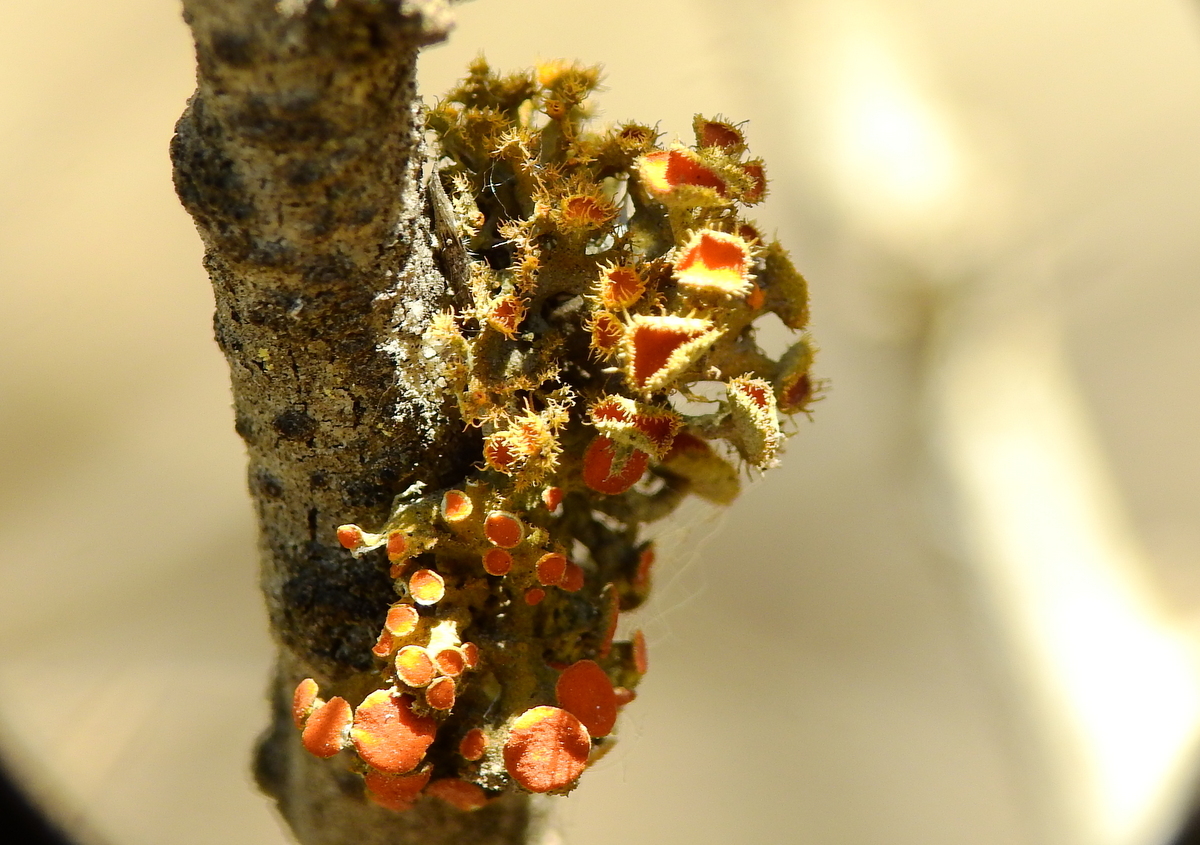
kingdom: Fungi
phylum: Ascomycota
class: Lecanoromycetes
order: Teloschistales
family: Teloschistaceae
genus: Niorma
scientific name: Niorma chrysophthalma
